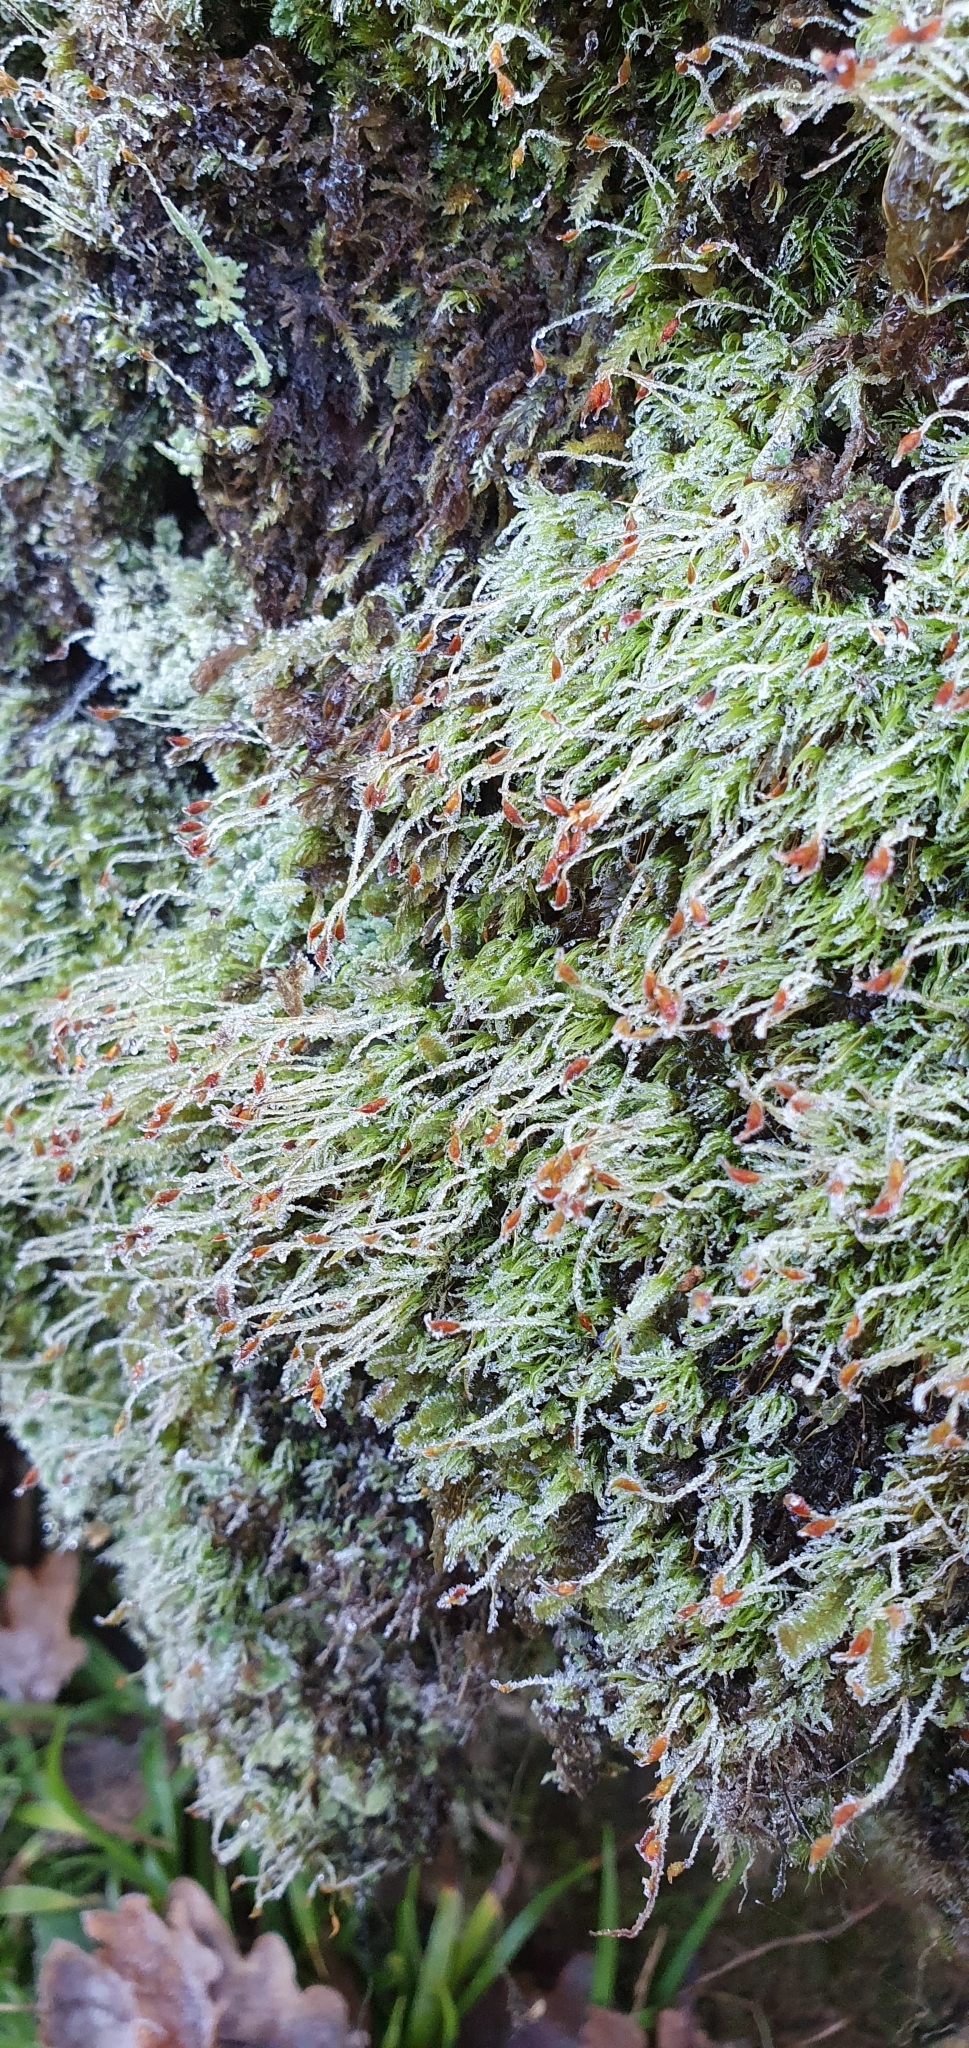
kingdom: Plantae
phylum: Bryophyta
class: Bryopsida
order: Dicranales
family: Dicranellaceae
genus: Dicranella
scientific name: Dicranella heteromalla
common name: Silky forklet moss
